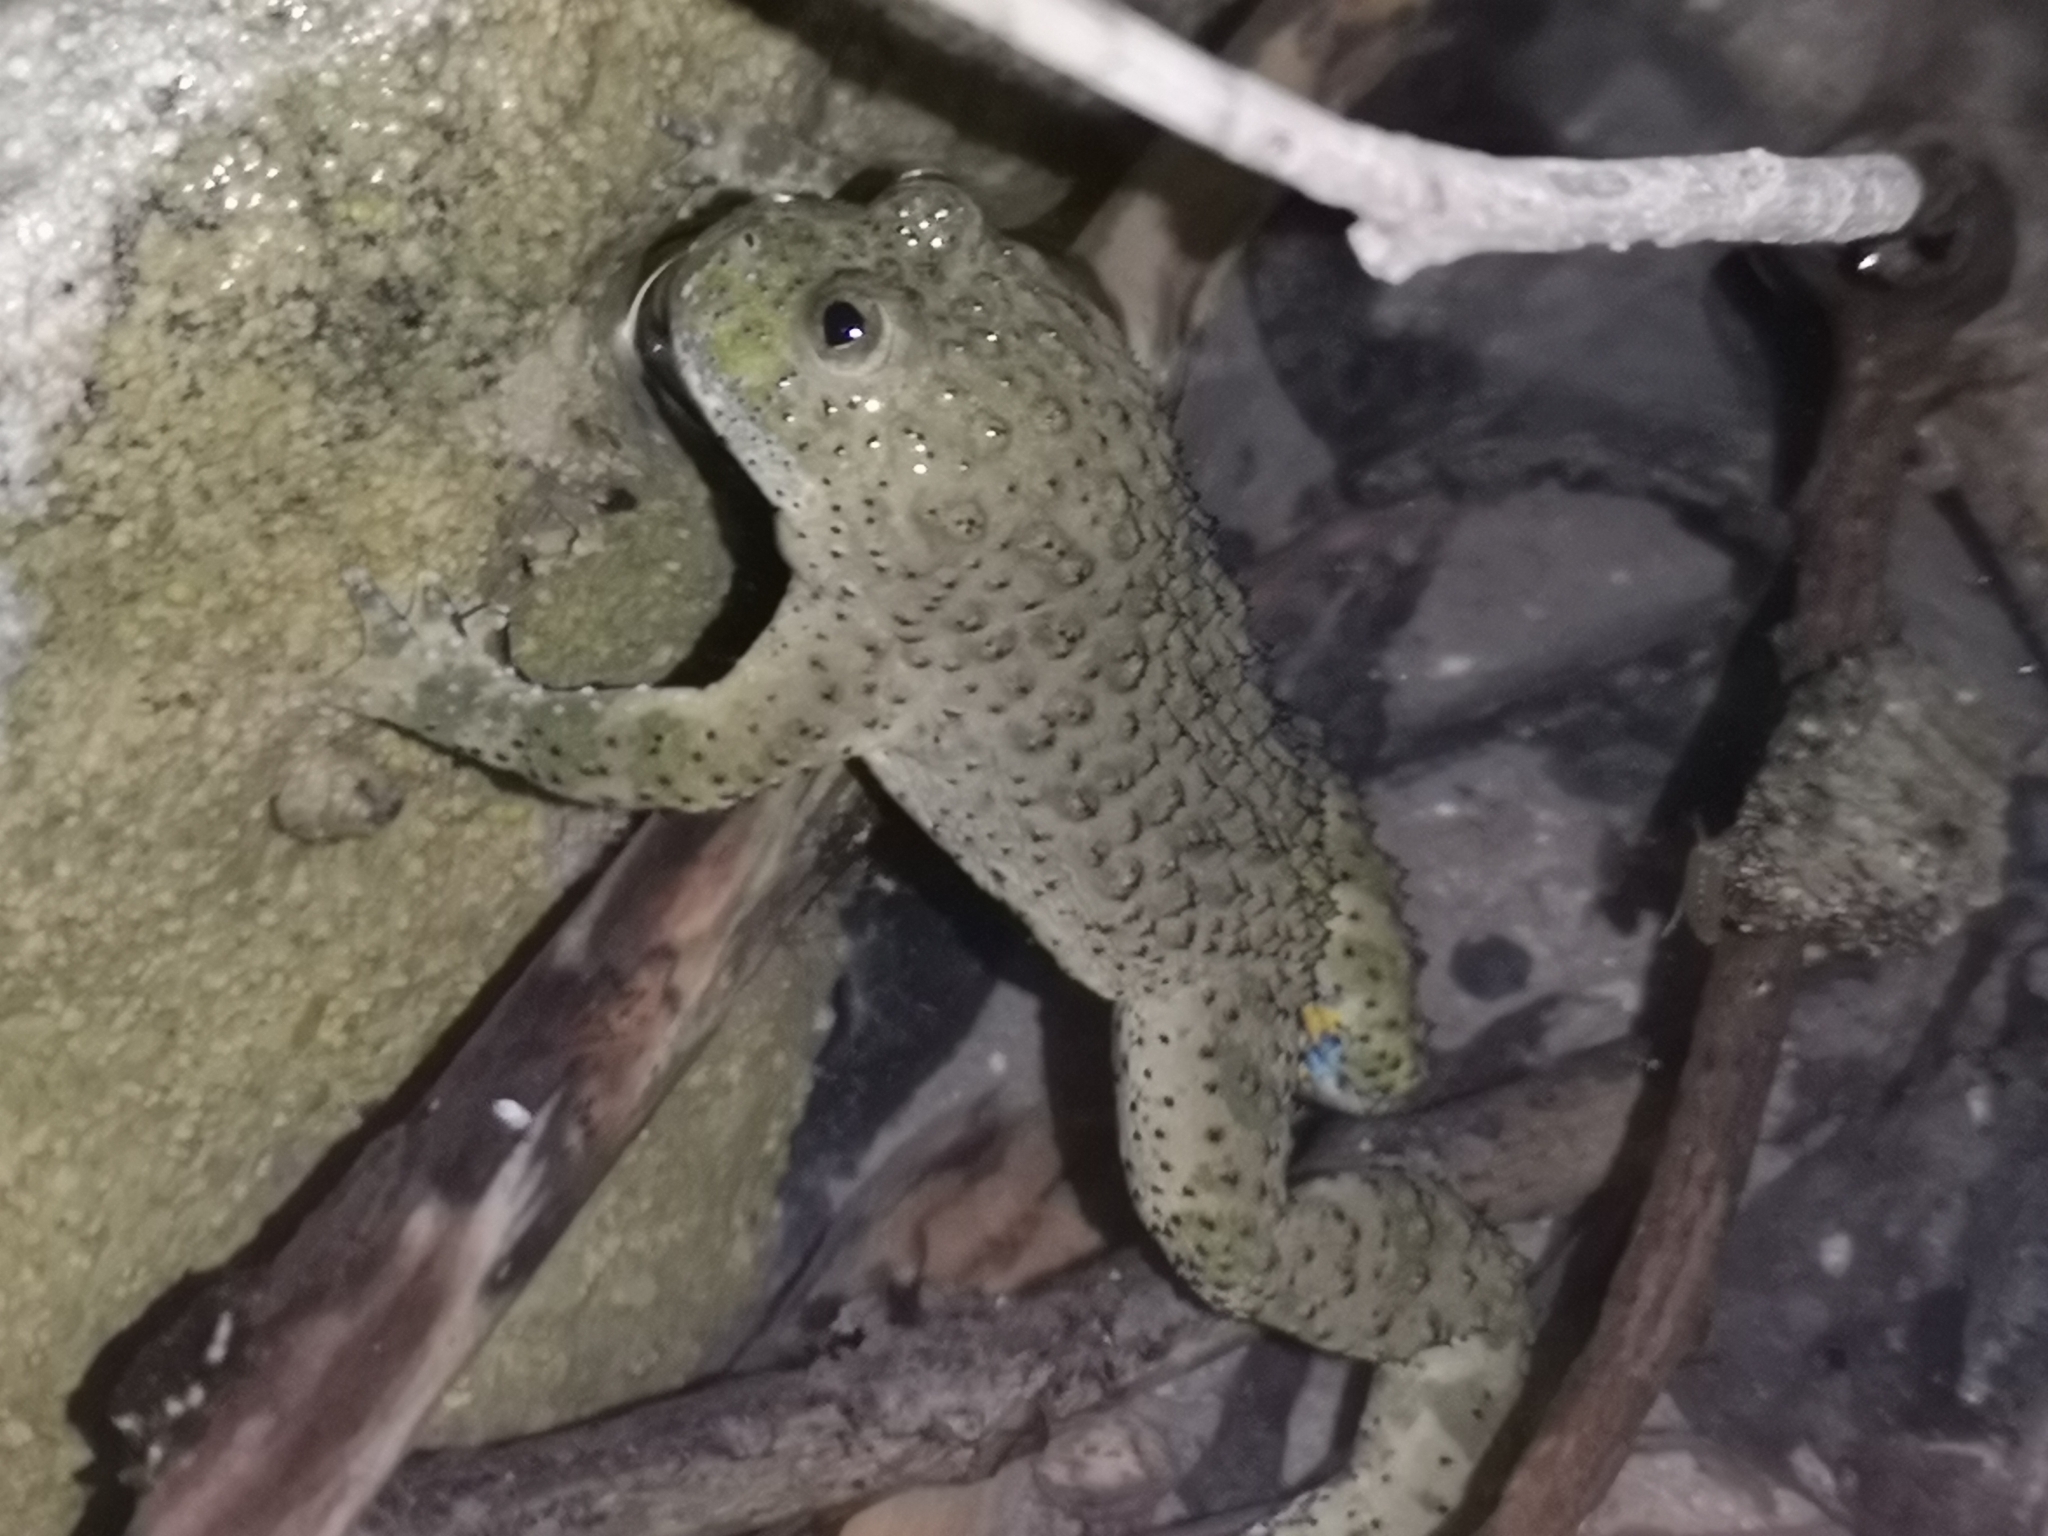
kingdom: Animalia
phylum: Chordata
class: Amphibia
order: Anura
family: Bombinatoridae
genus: Bombina
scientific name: Bombina variegata
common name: Yellow-bellied toad
